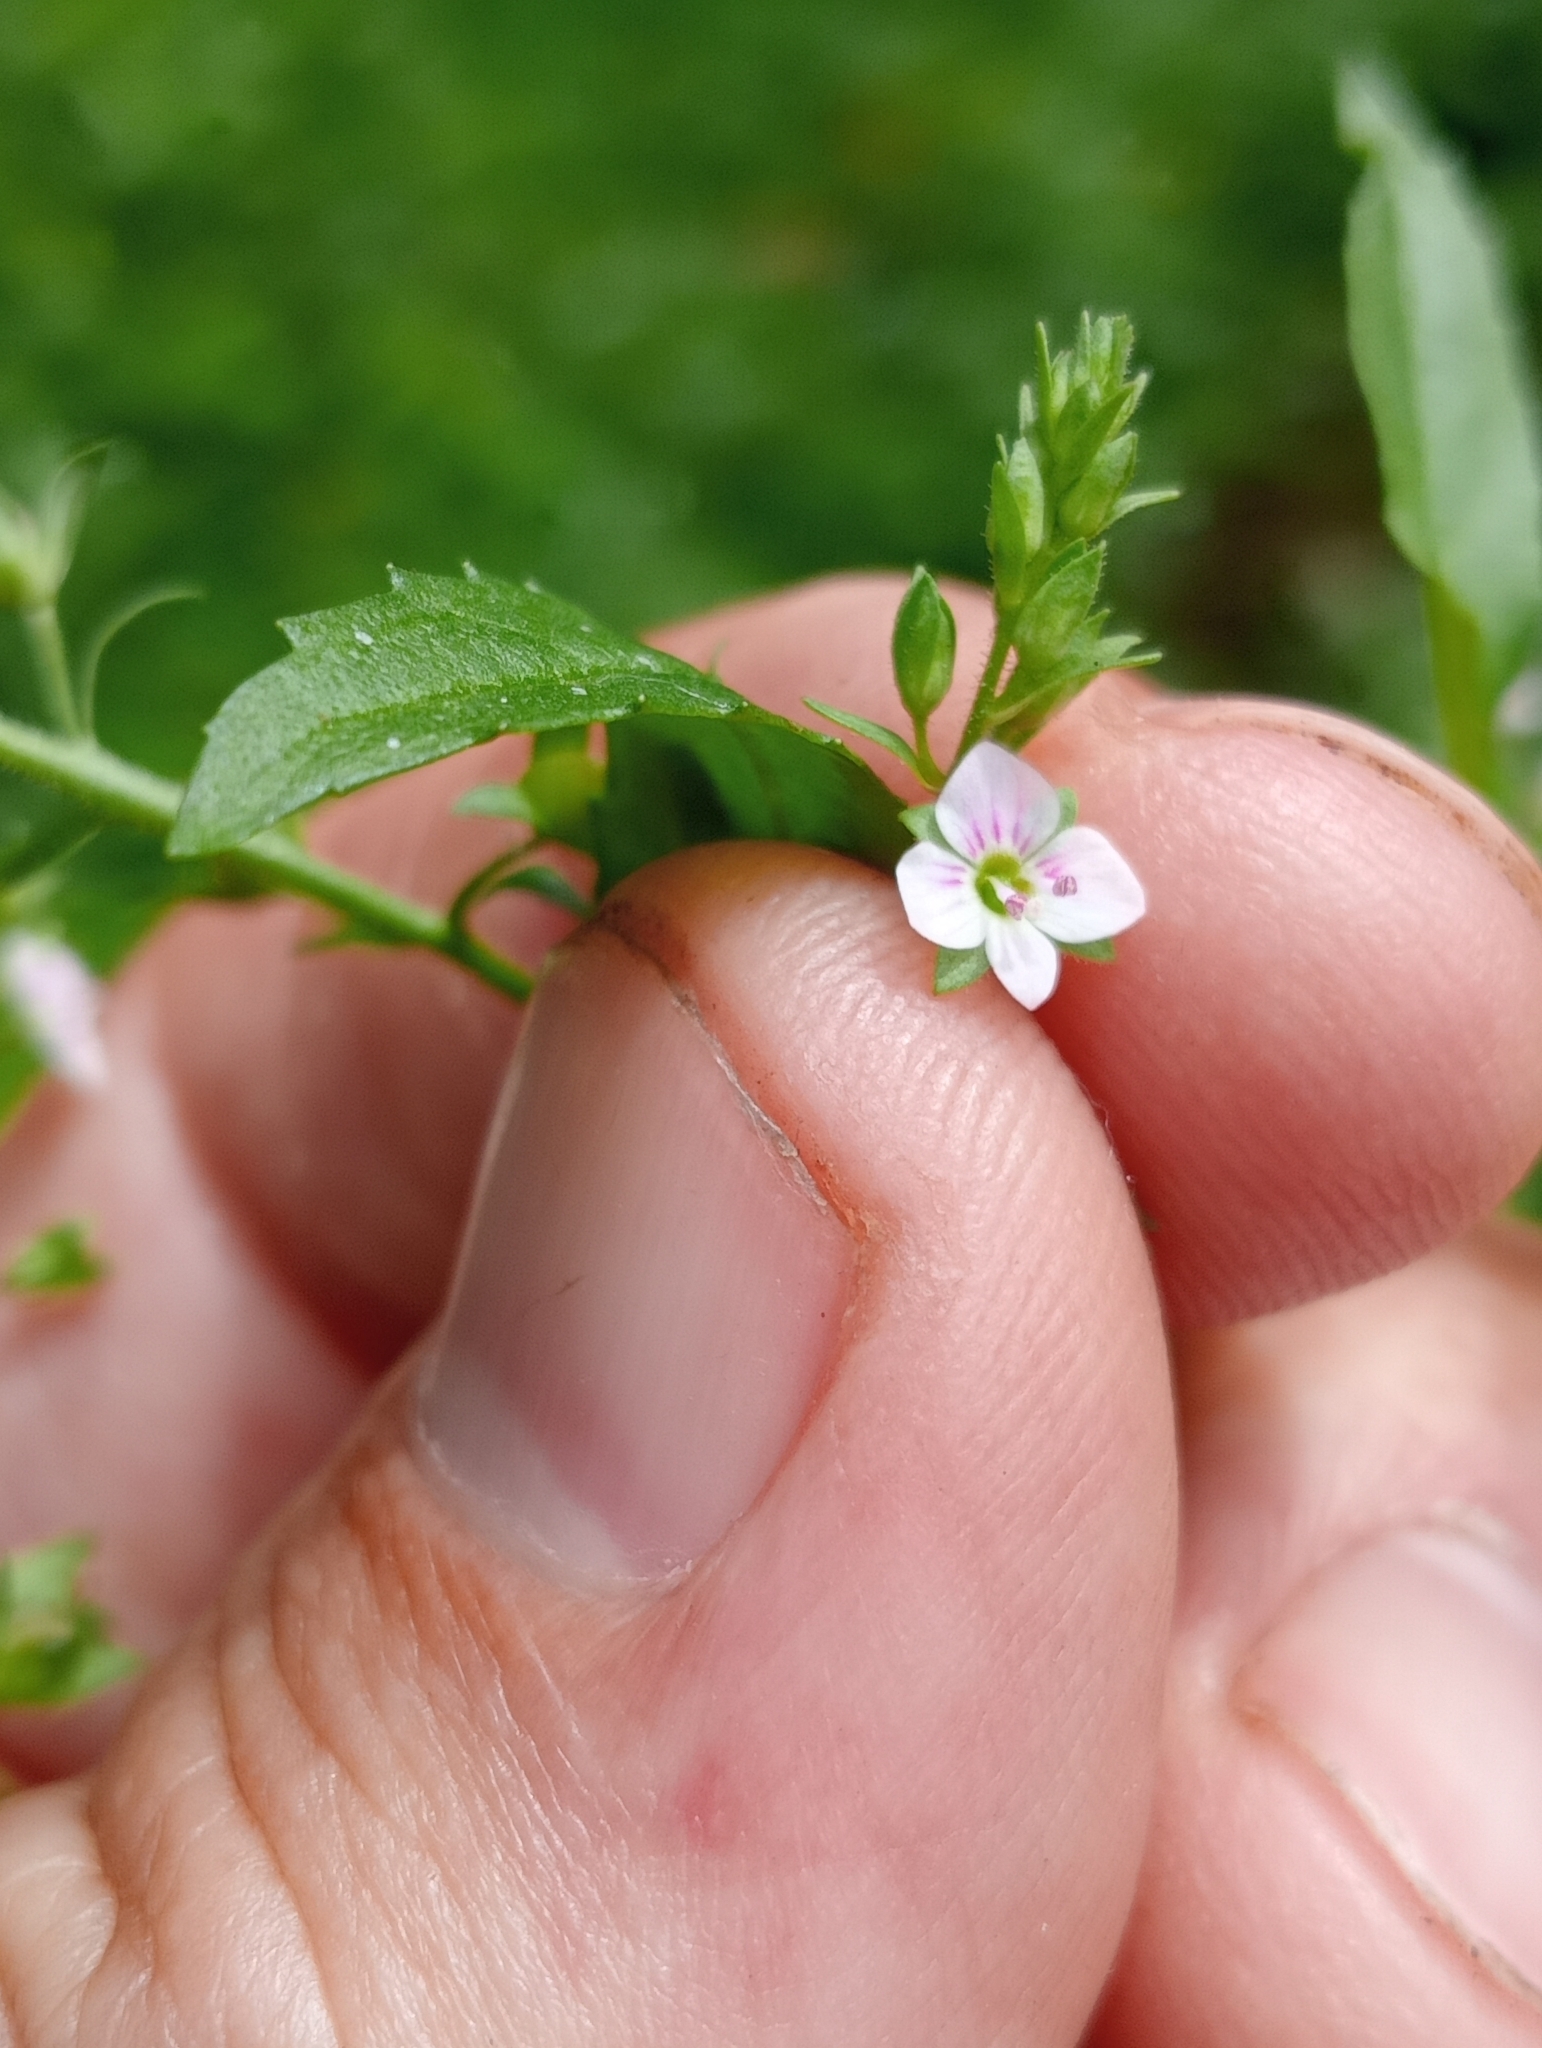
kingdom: Plantae
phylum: Tracheophyta
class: Magnoliopsida
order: Lamiales
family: Plantaginaceae
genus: Veronica
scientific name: Veronica catenata
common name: Pink water-speedwell
